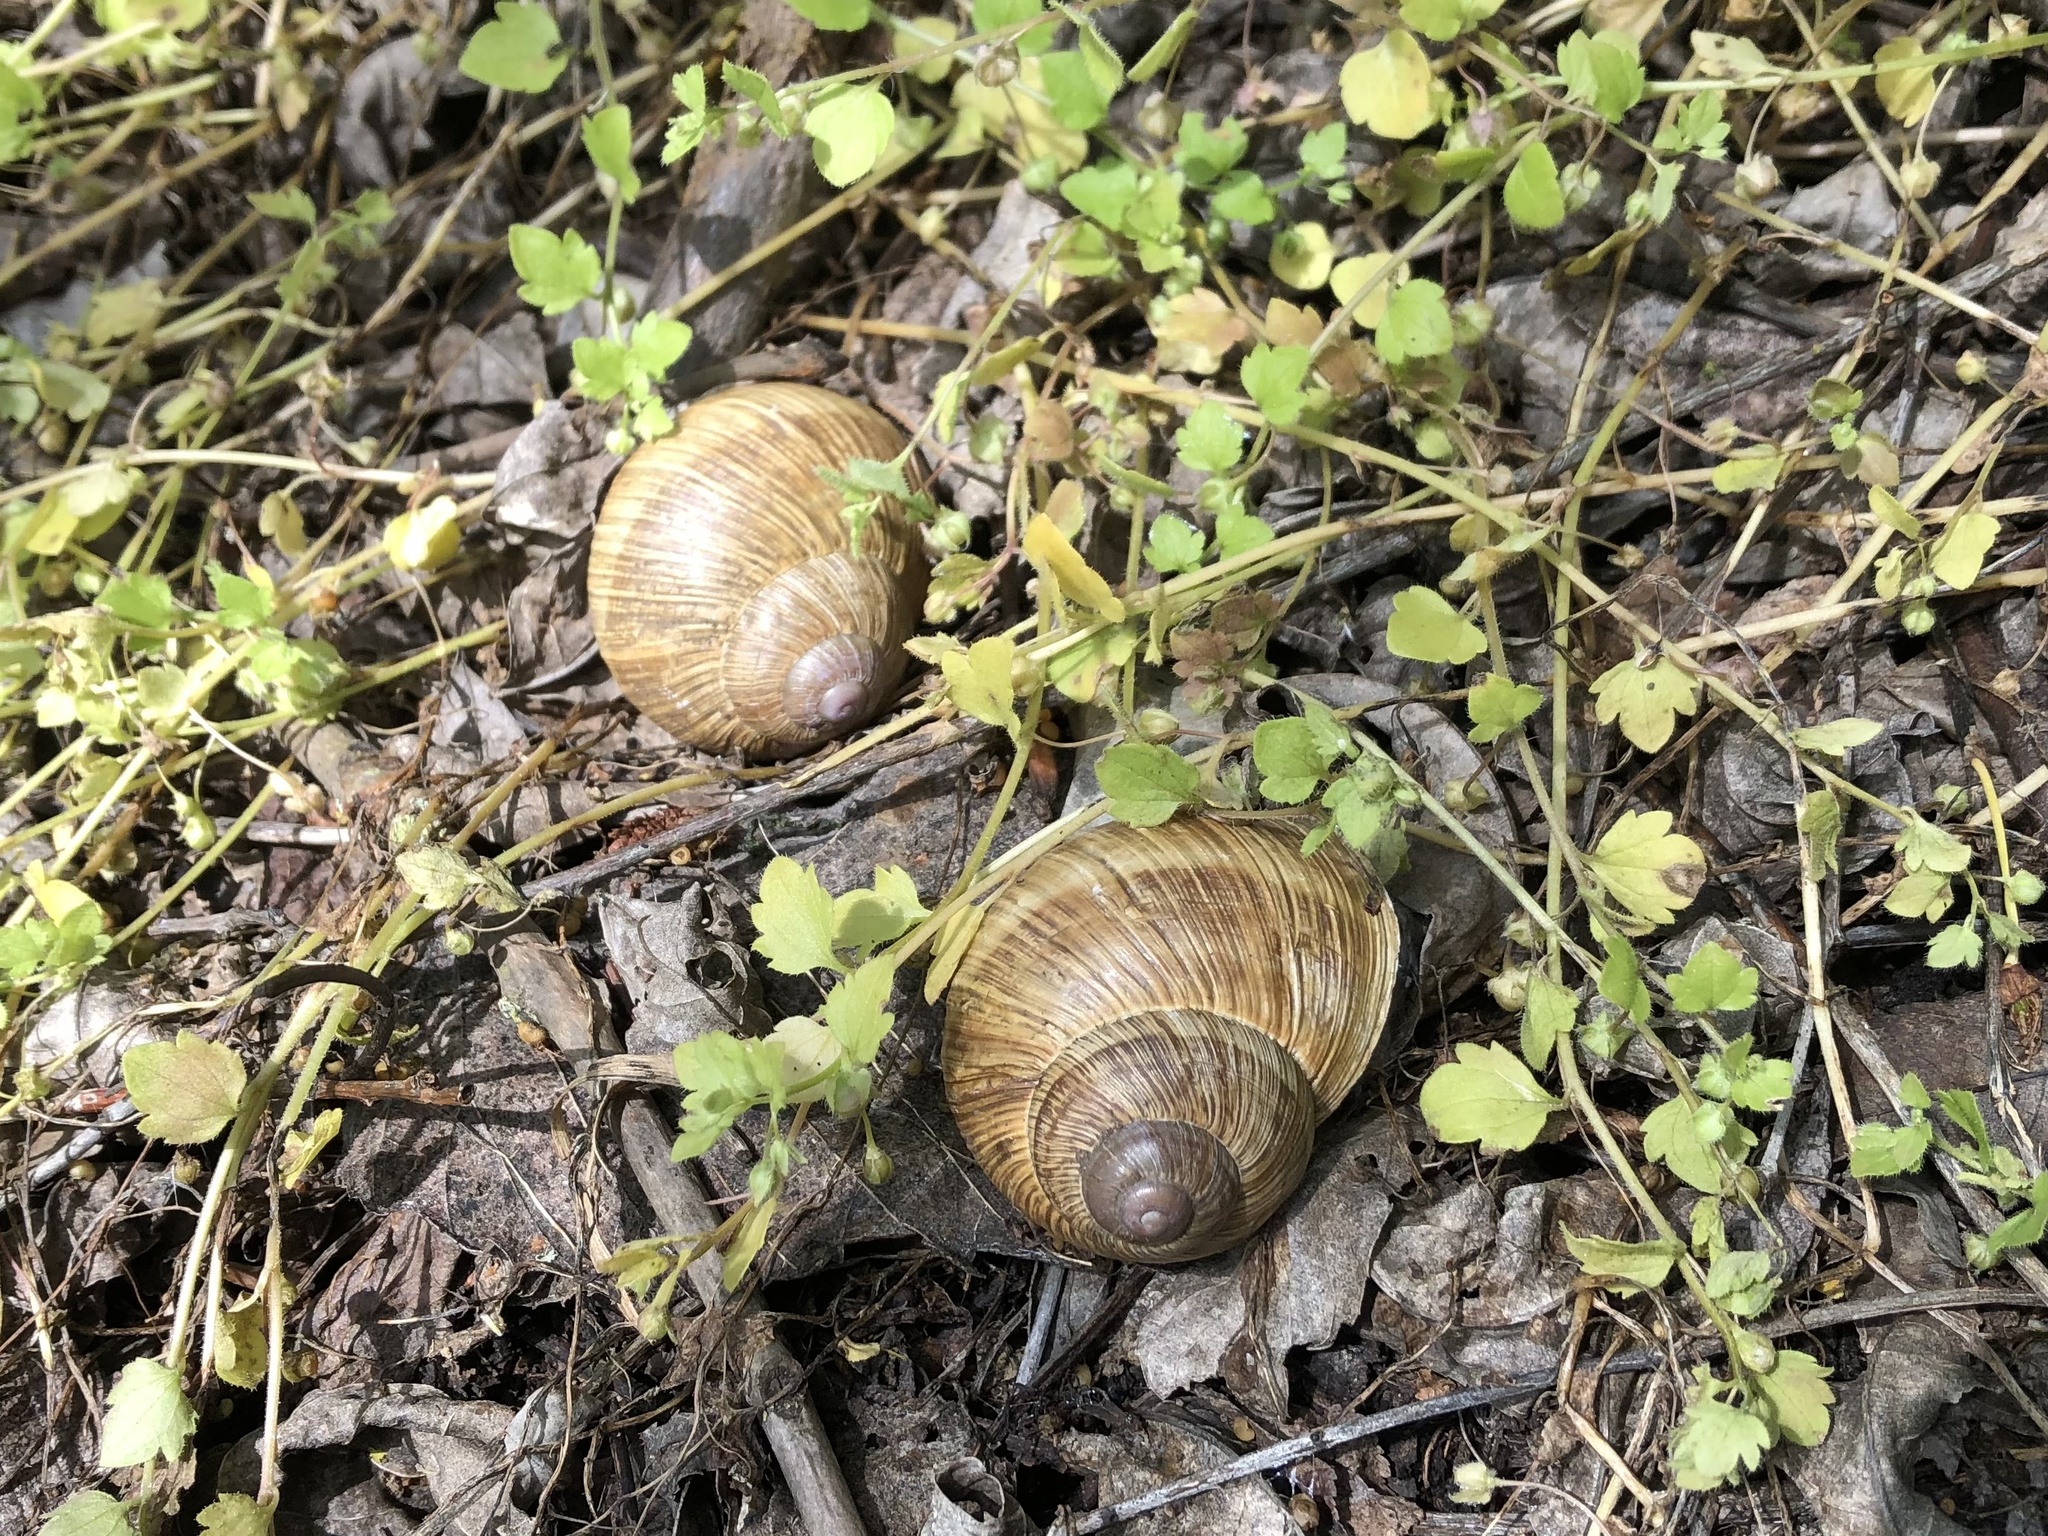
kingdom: Animalia
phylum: Mollusca
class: Gastropoda
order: Stylommatophora
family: Helicidae
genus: Helix
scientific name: Helix pomatia
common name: Roman snail
